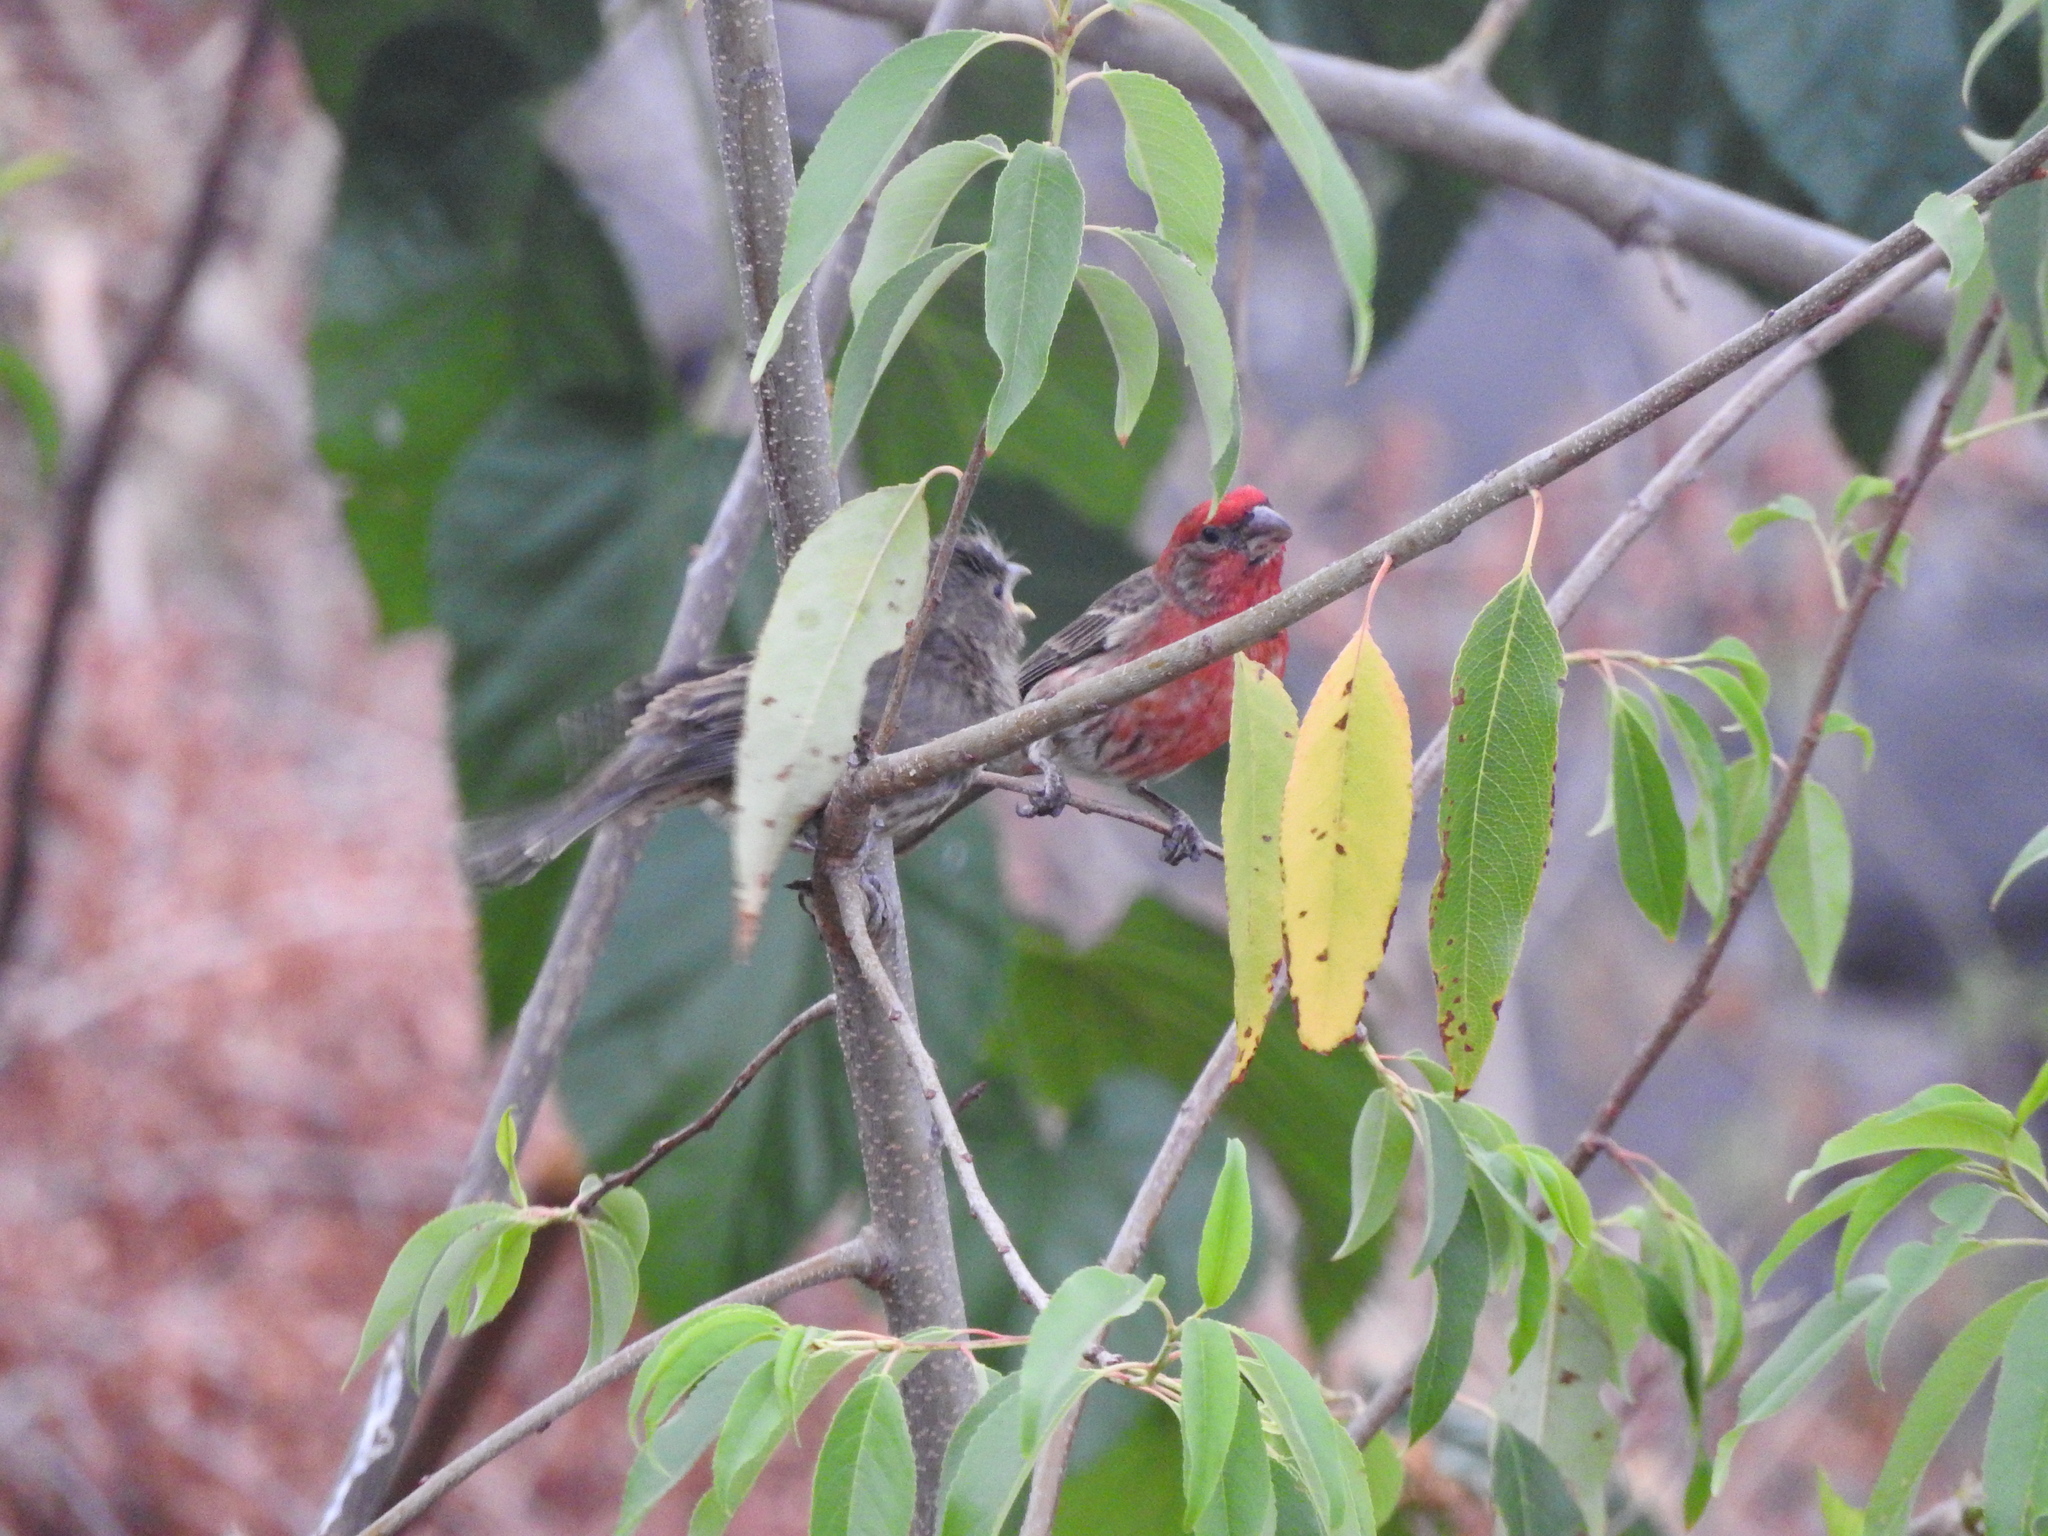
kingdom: Animalia
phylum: Chordata
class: Aves
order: Passeriformes
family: Fringillidae
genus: Haemorhous
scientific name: Haemorhous mexicanus
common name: House finch
